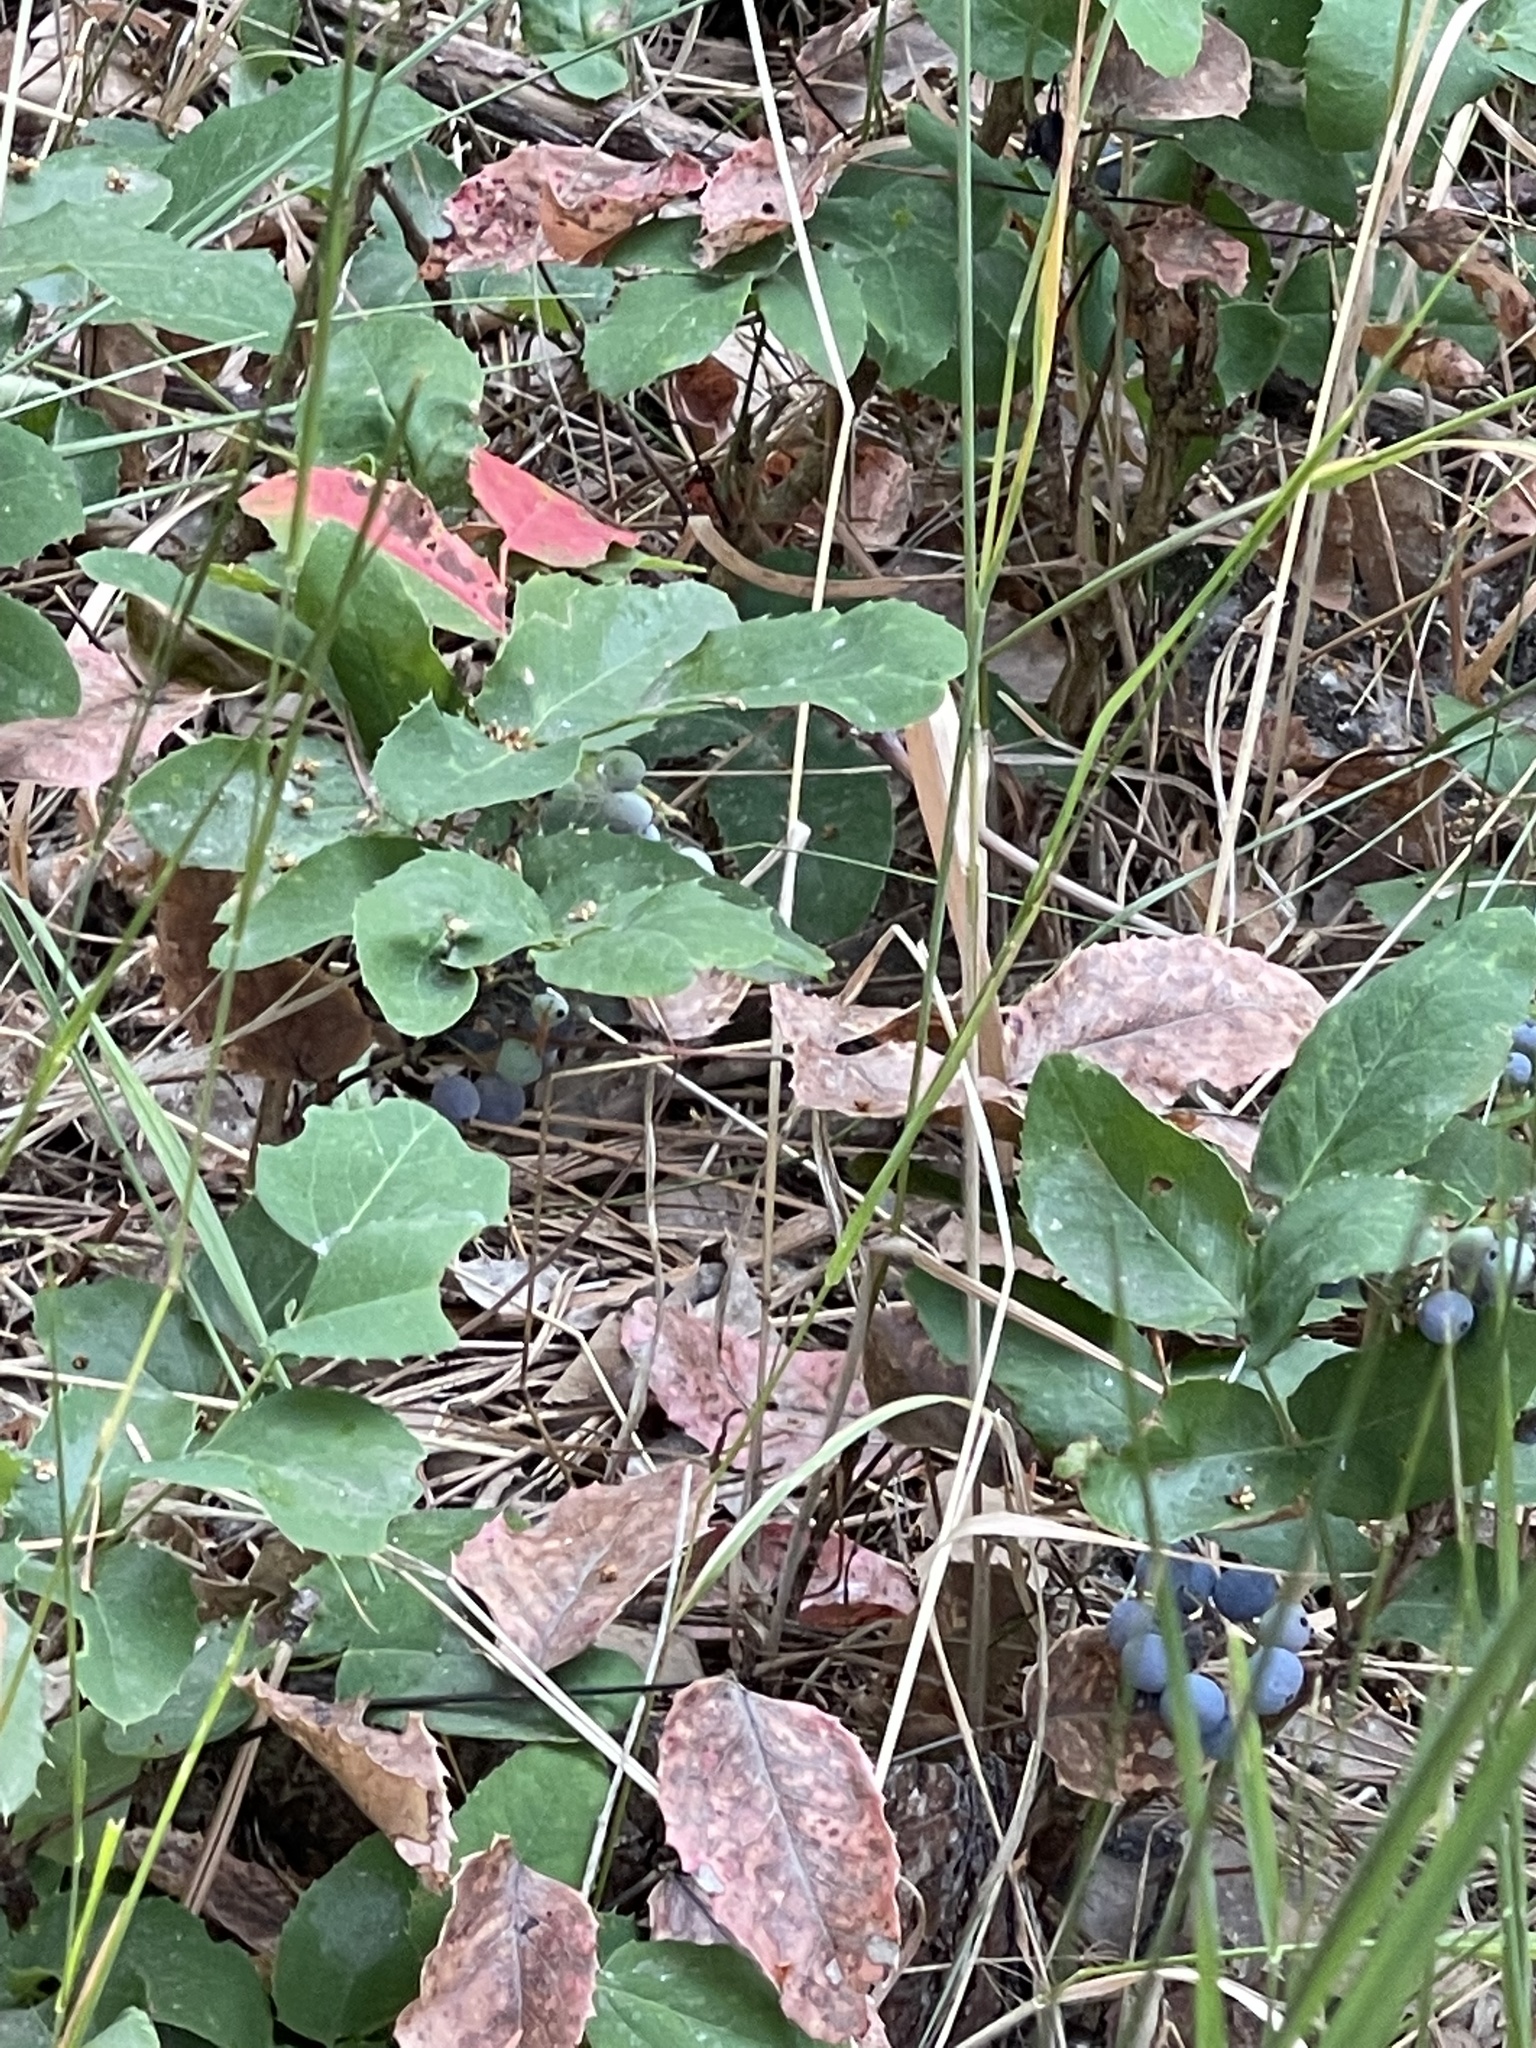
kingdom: Plantae
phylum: Tracheophyta
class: Magnoliopsida
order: Ranunculales
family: Berberidaceae
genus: Mahonia
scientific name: Mahonia repens
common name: Creeping oregon-grape
